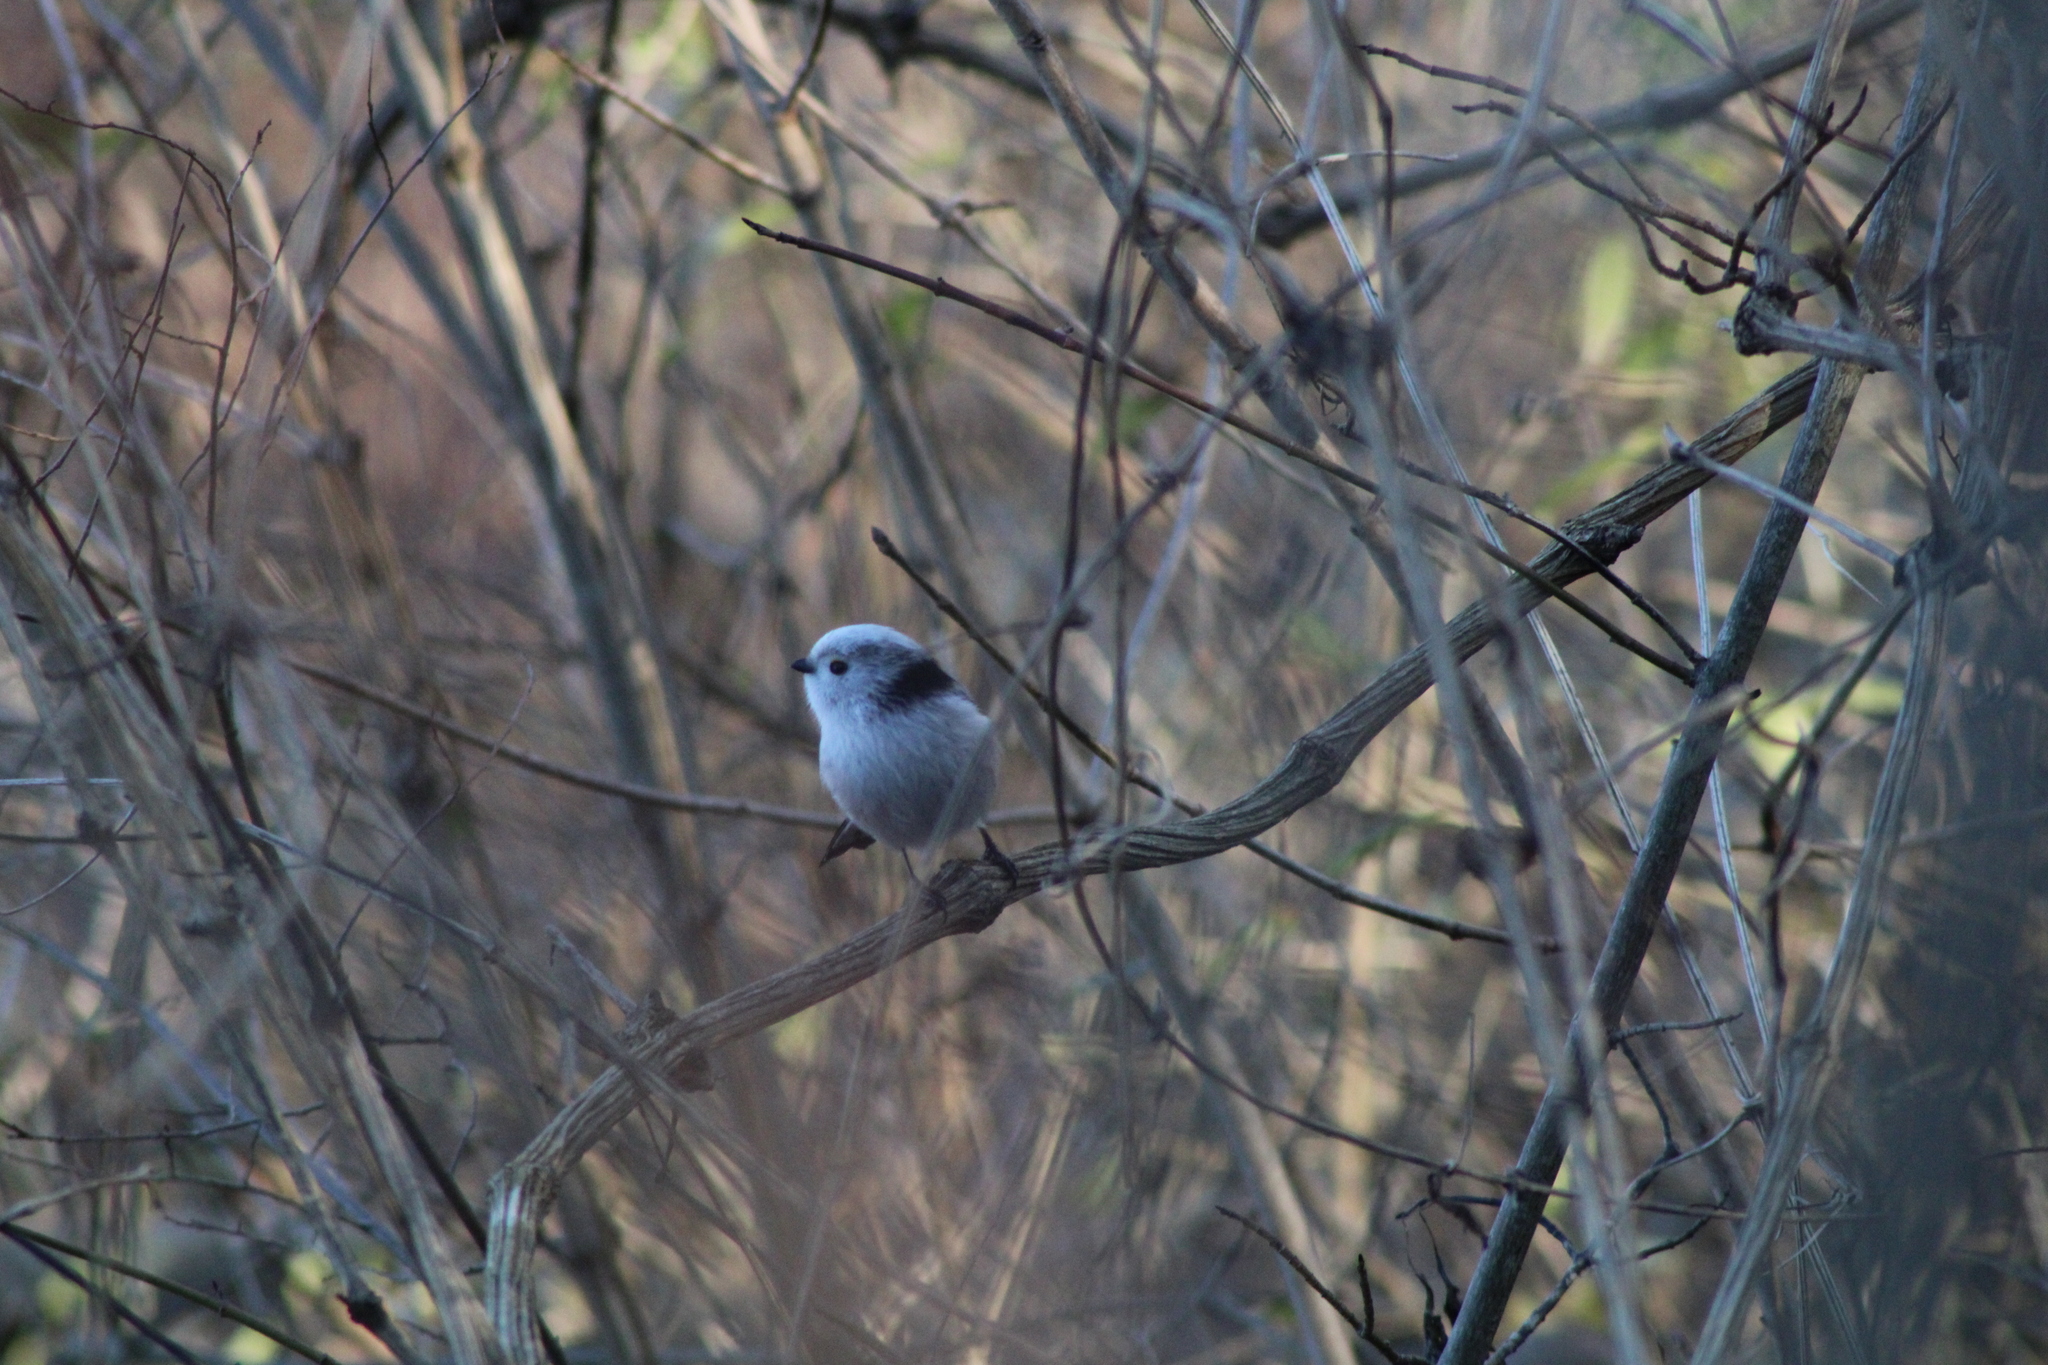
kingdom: Animalia
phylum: Chordata
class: Aves
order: Passeriformes
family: Aegithalidae
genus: Aegithalos
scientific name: Aegithalos caudatus
